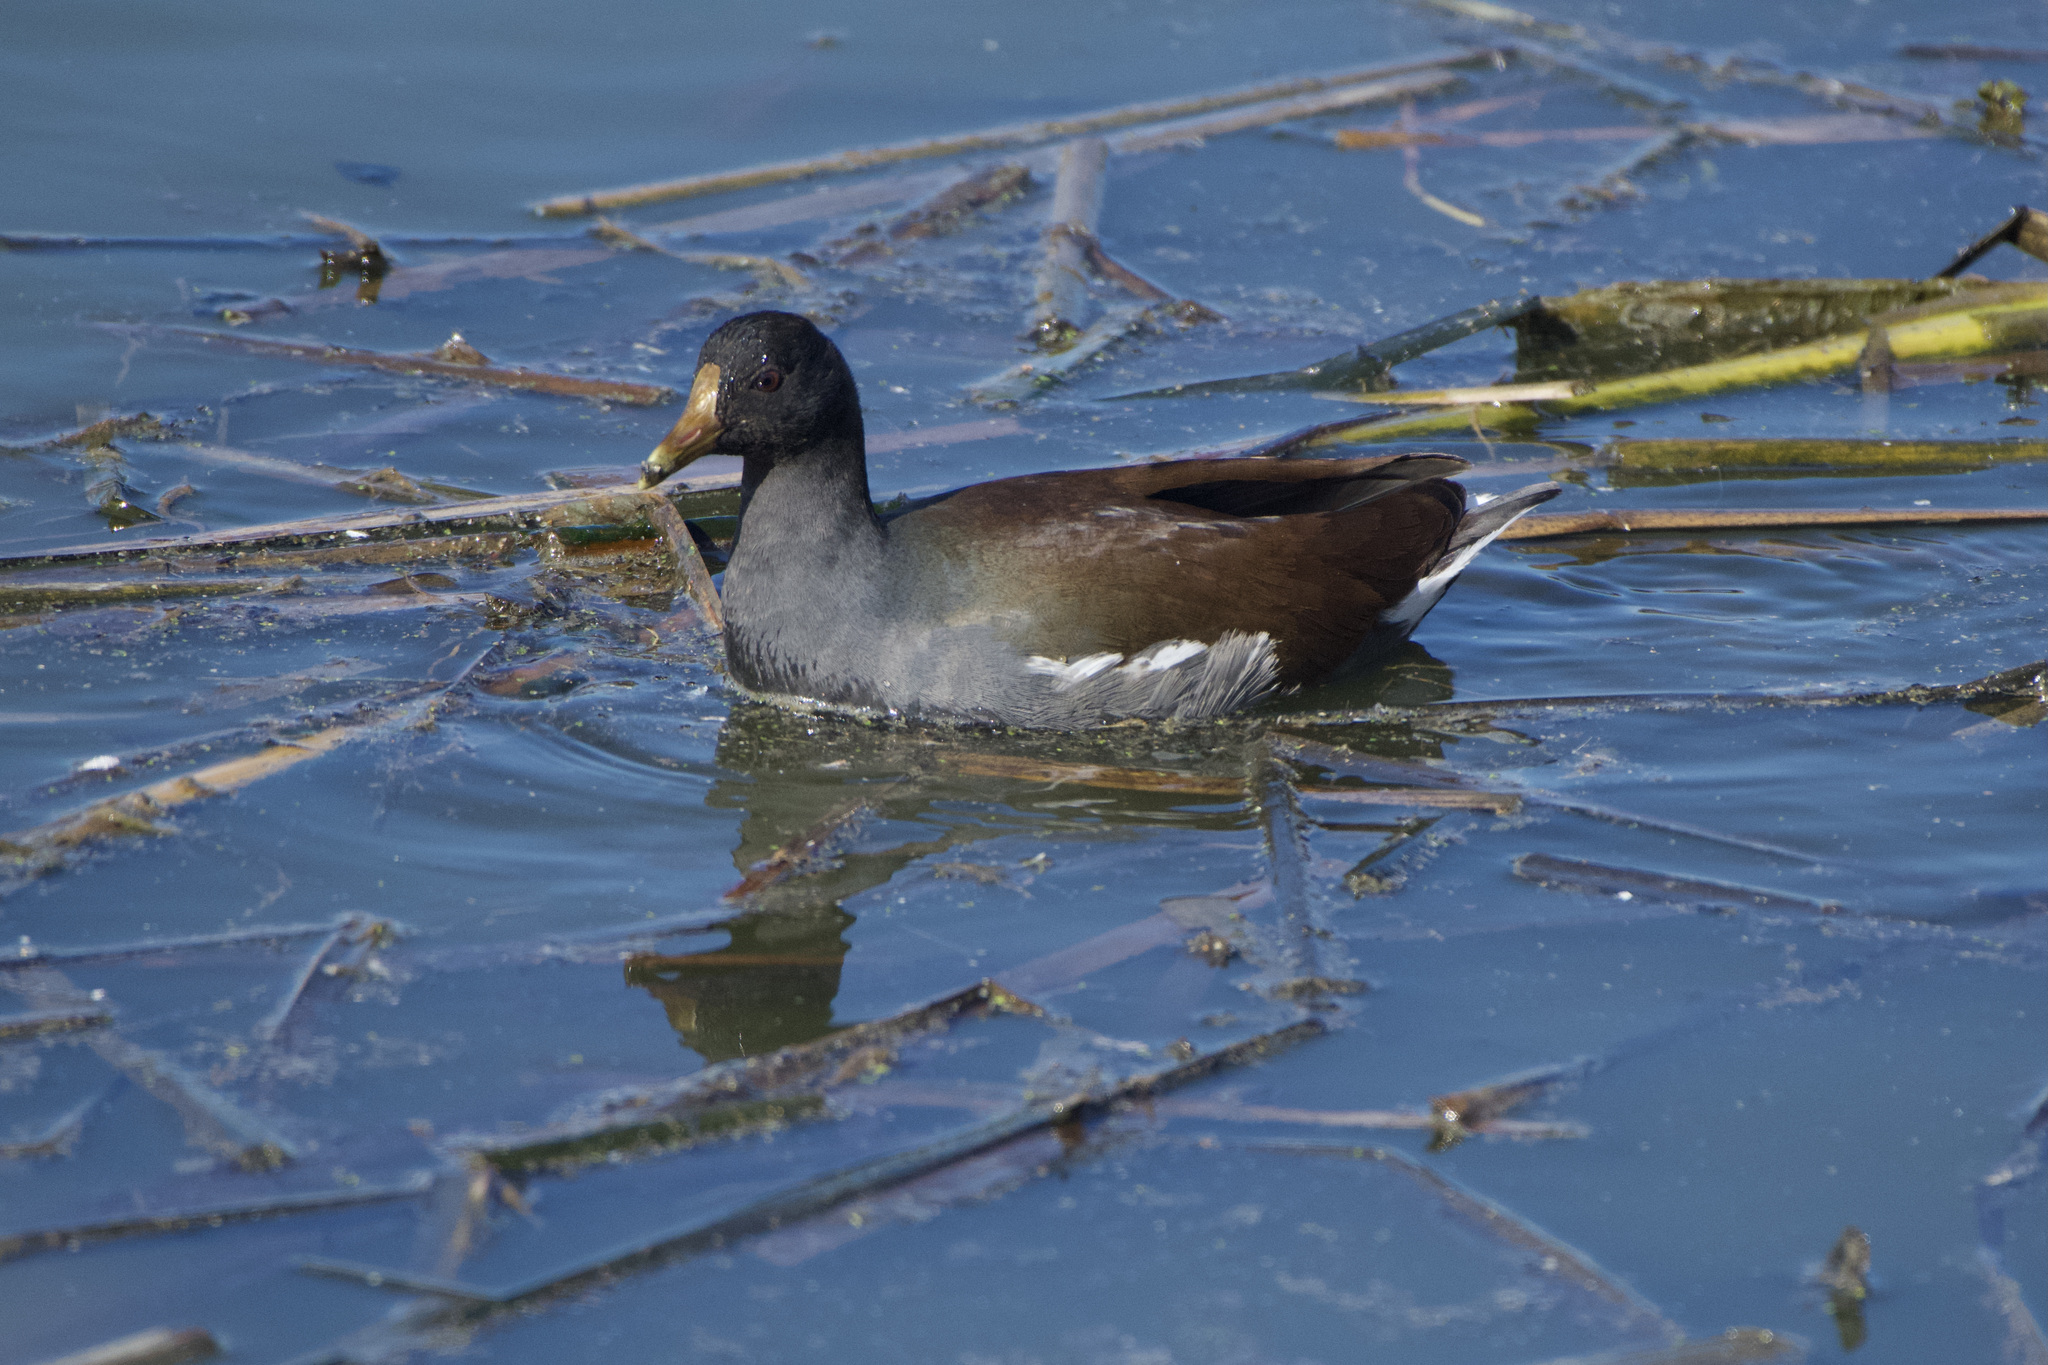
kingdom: Animalia
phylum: Chordata
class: Aves
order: Gruiformes
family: Rallidae
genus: Gallinula
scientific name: Gallinula chloropus
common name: Common moorhen
